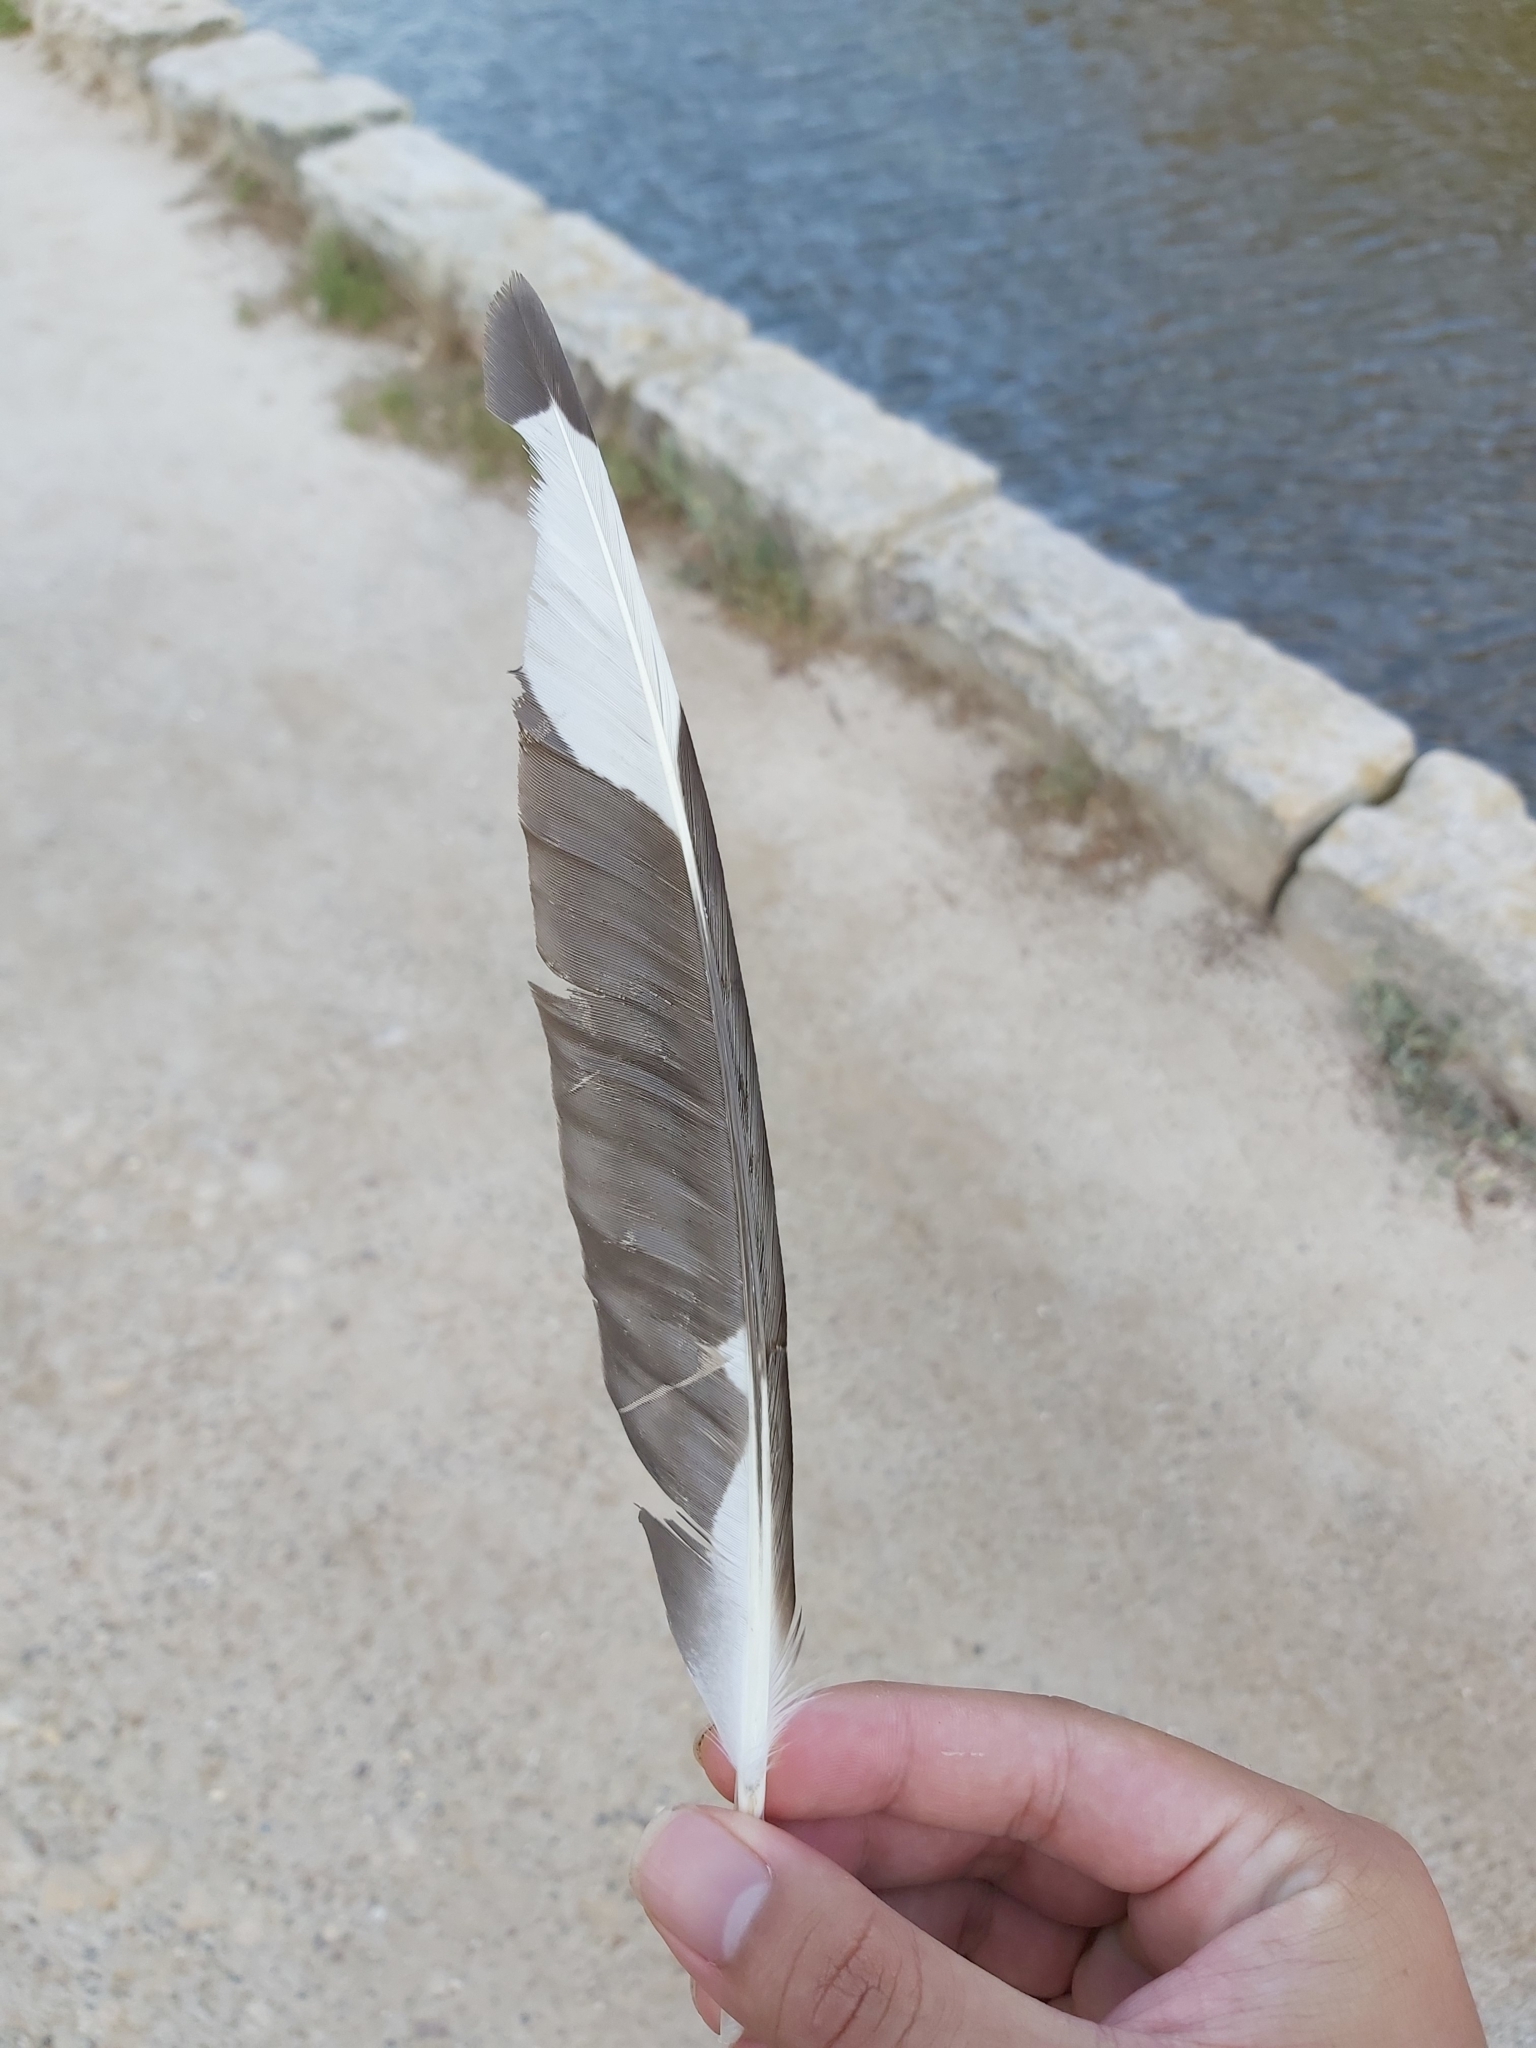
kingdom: Animalia
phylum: Chordata
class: Aves
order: Charadriiformes
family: Laridae
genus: Chroicocephalus
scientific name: Chroicocephalus novaehollandiae
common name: Silver gull
